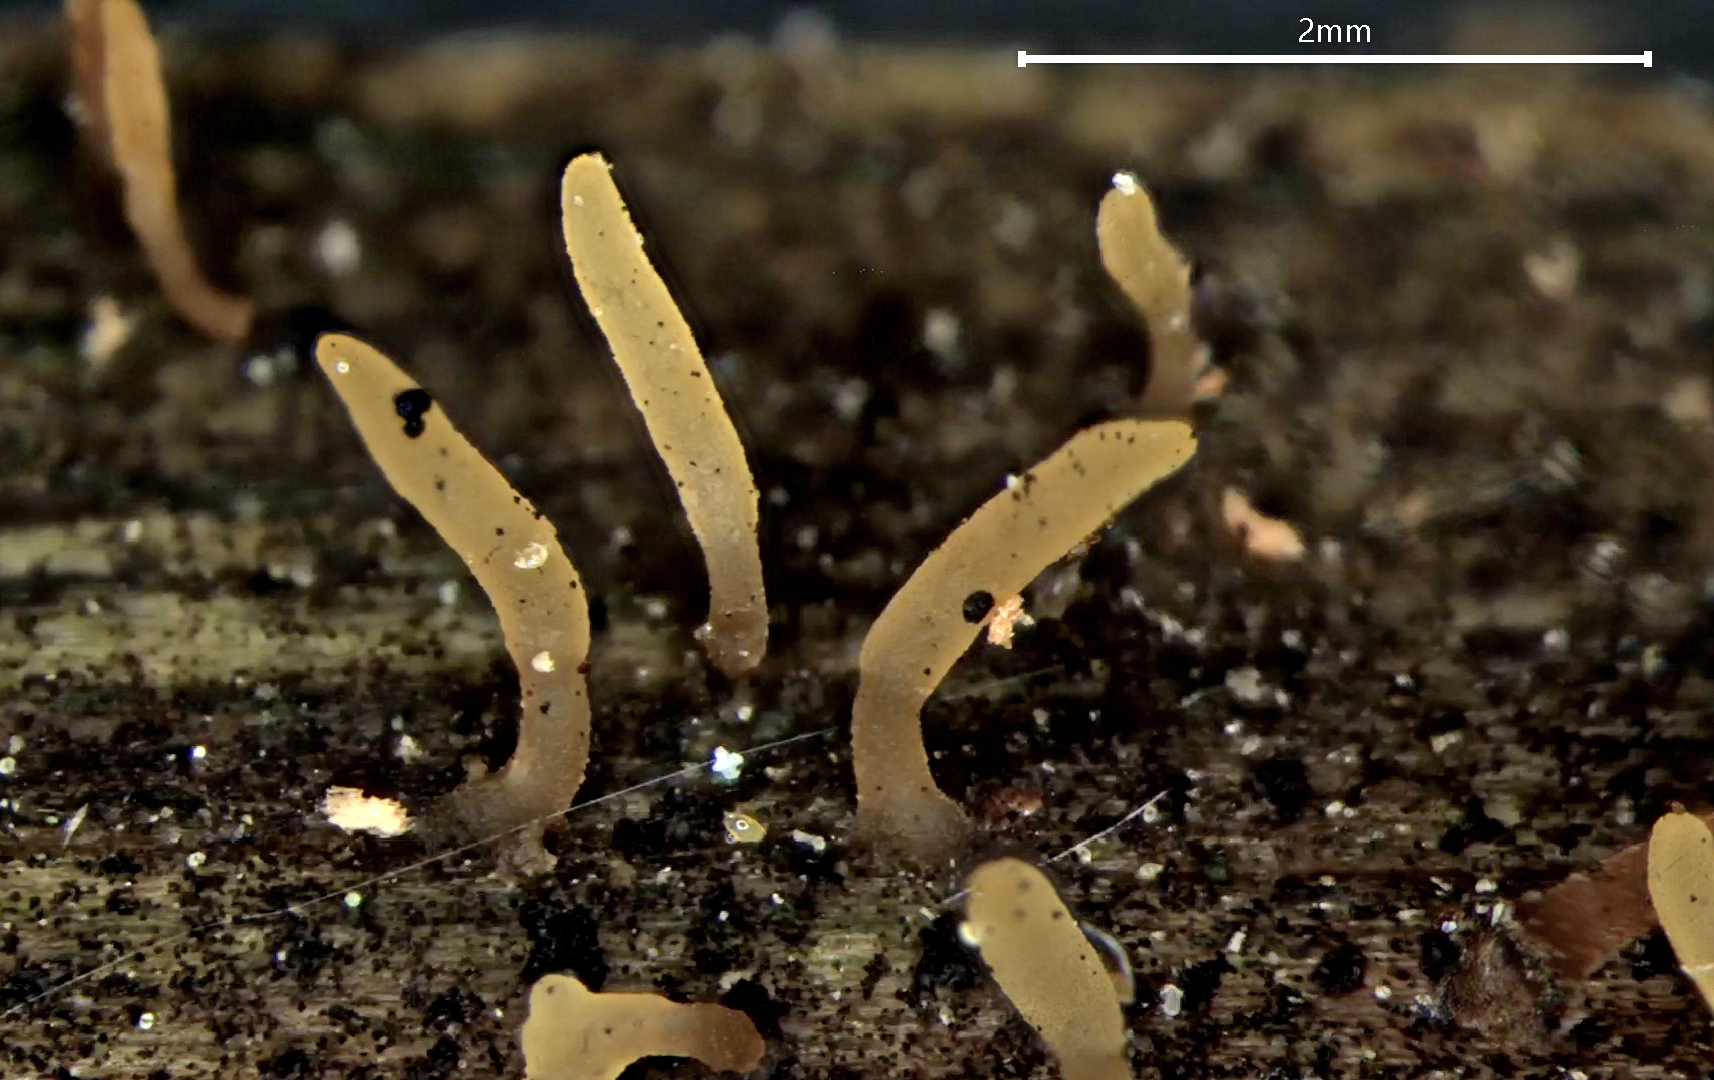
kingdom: Fungi
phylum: Basidiomycota
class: Dacrymycetes
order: Dacrymycetales
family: Dacrymycetaceae
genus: Calocera
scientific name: Calocera pedicellata
